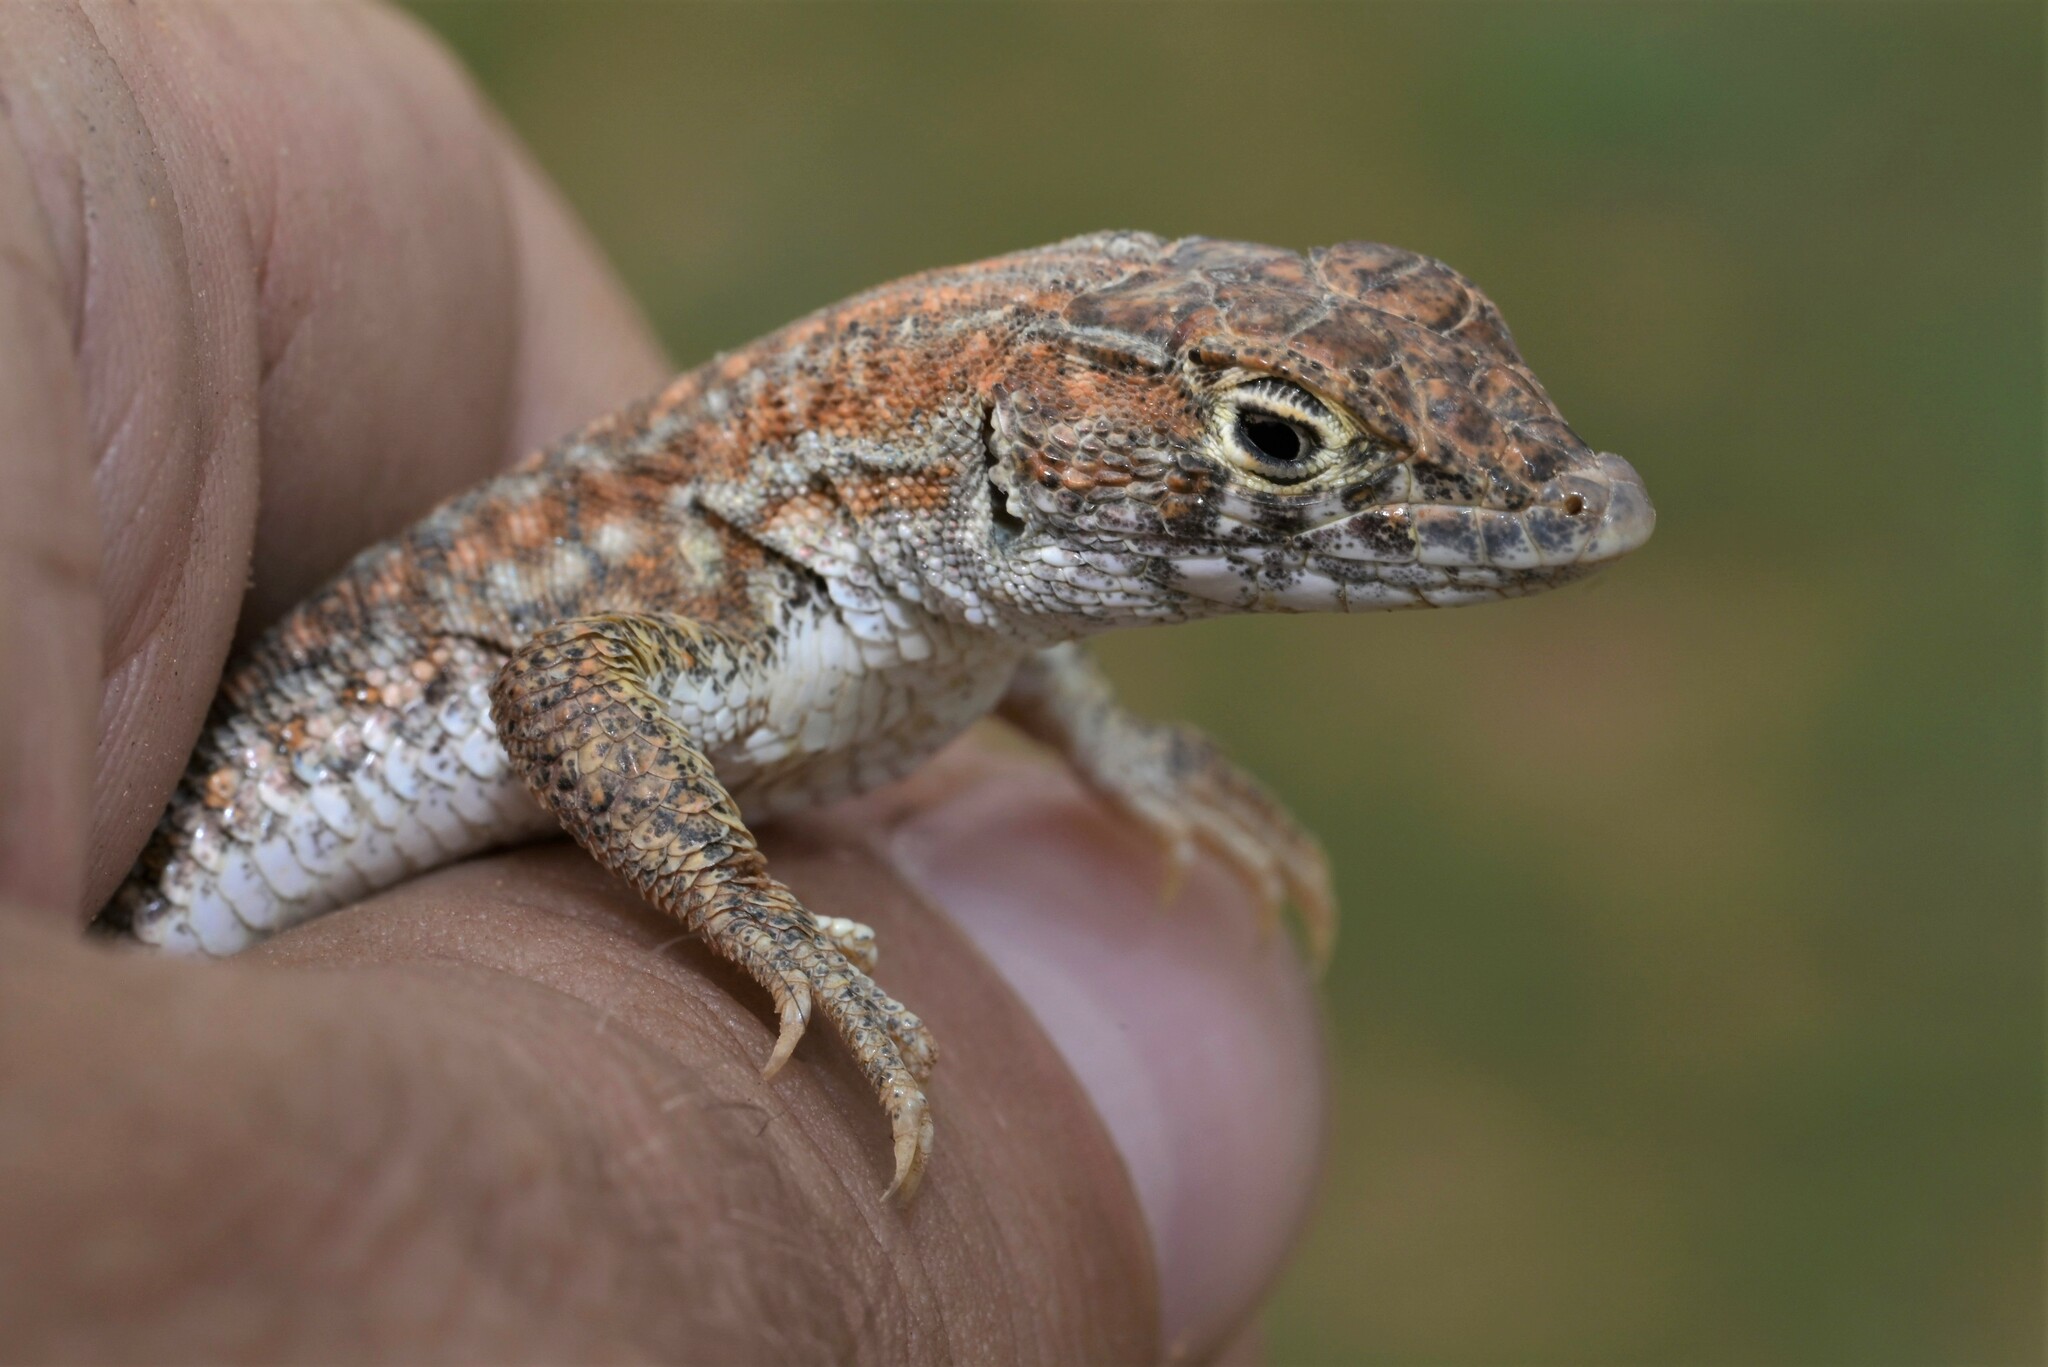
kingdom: Animalia
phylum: Chordata
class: Squamata
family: Lacertidae
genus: Acanthodactylus
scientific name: Acanthodactylus opheodurus
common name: Arnold's fringe-fingered lizard
